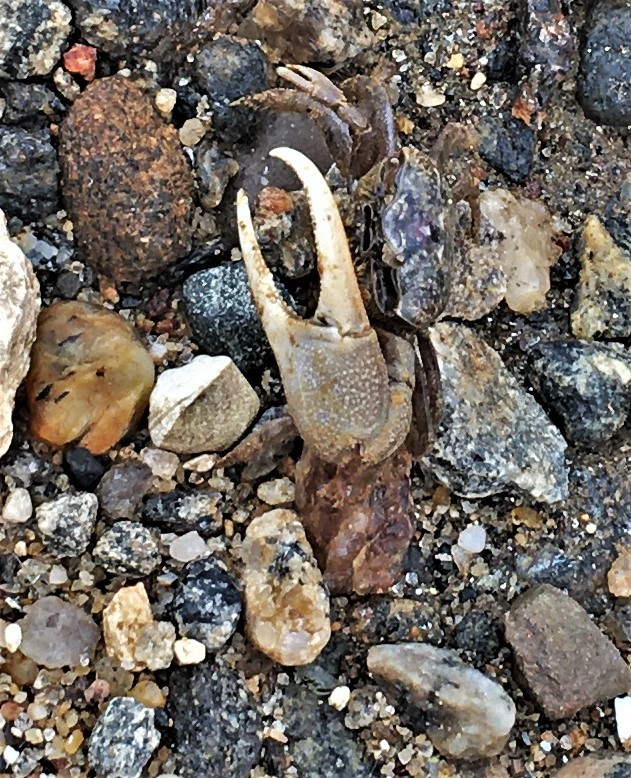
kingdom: Animalia
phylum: Arthropoda
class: Malacostraca
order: Decapoda
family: Ocypodidae
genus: Leptuca
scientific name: Leptuca pugilator
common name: Atlantic sand fiddler crab
